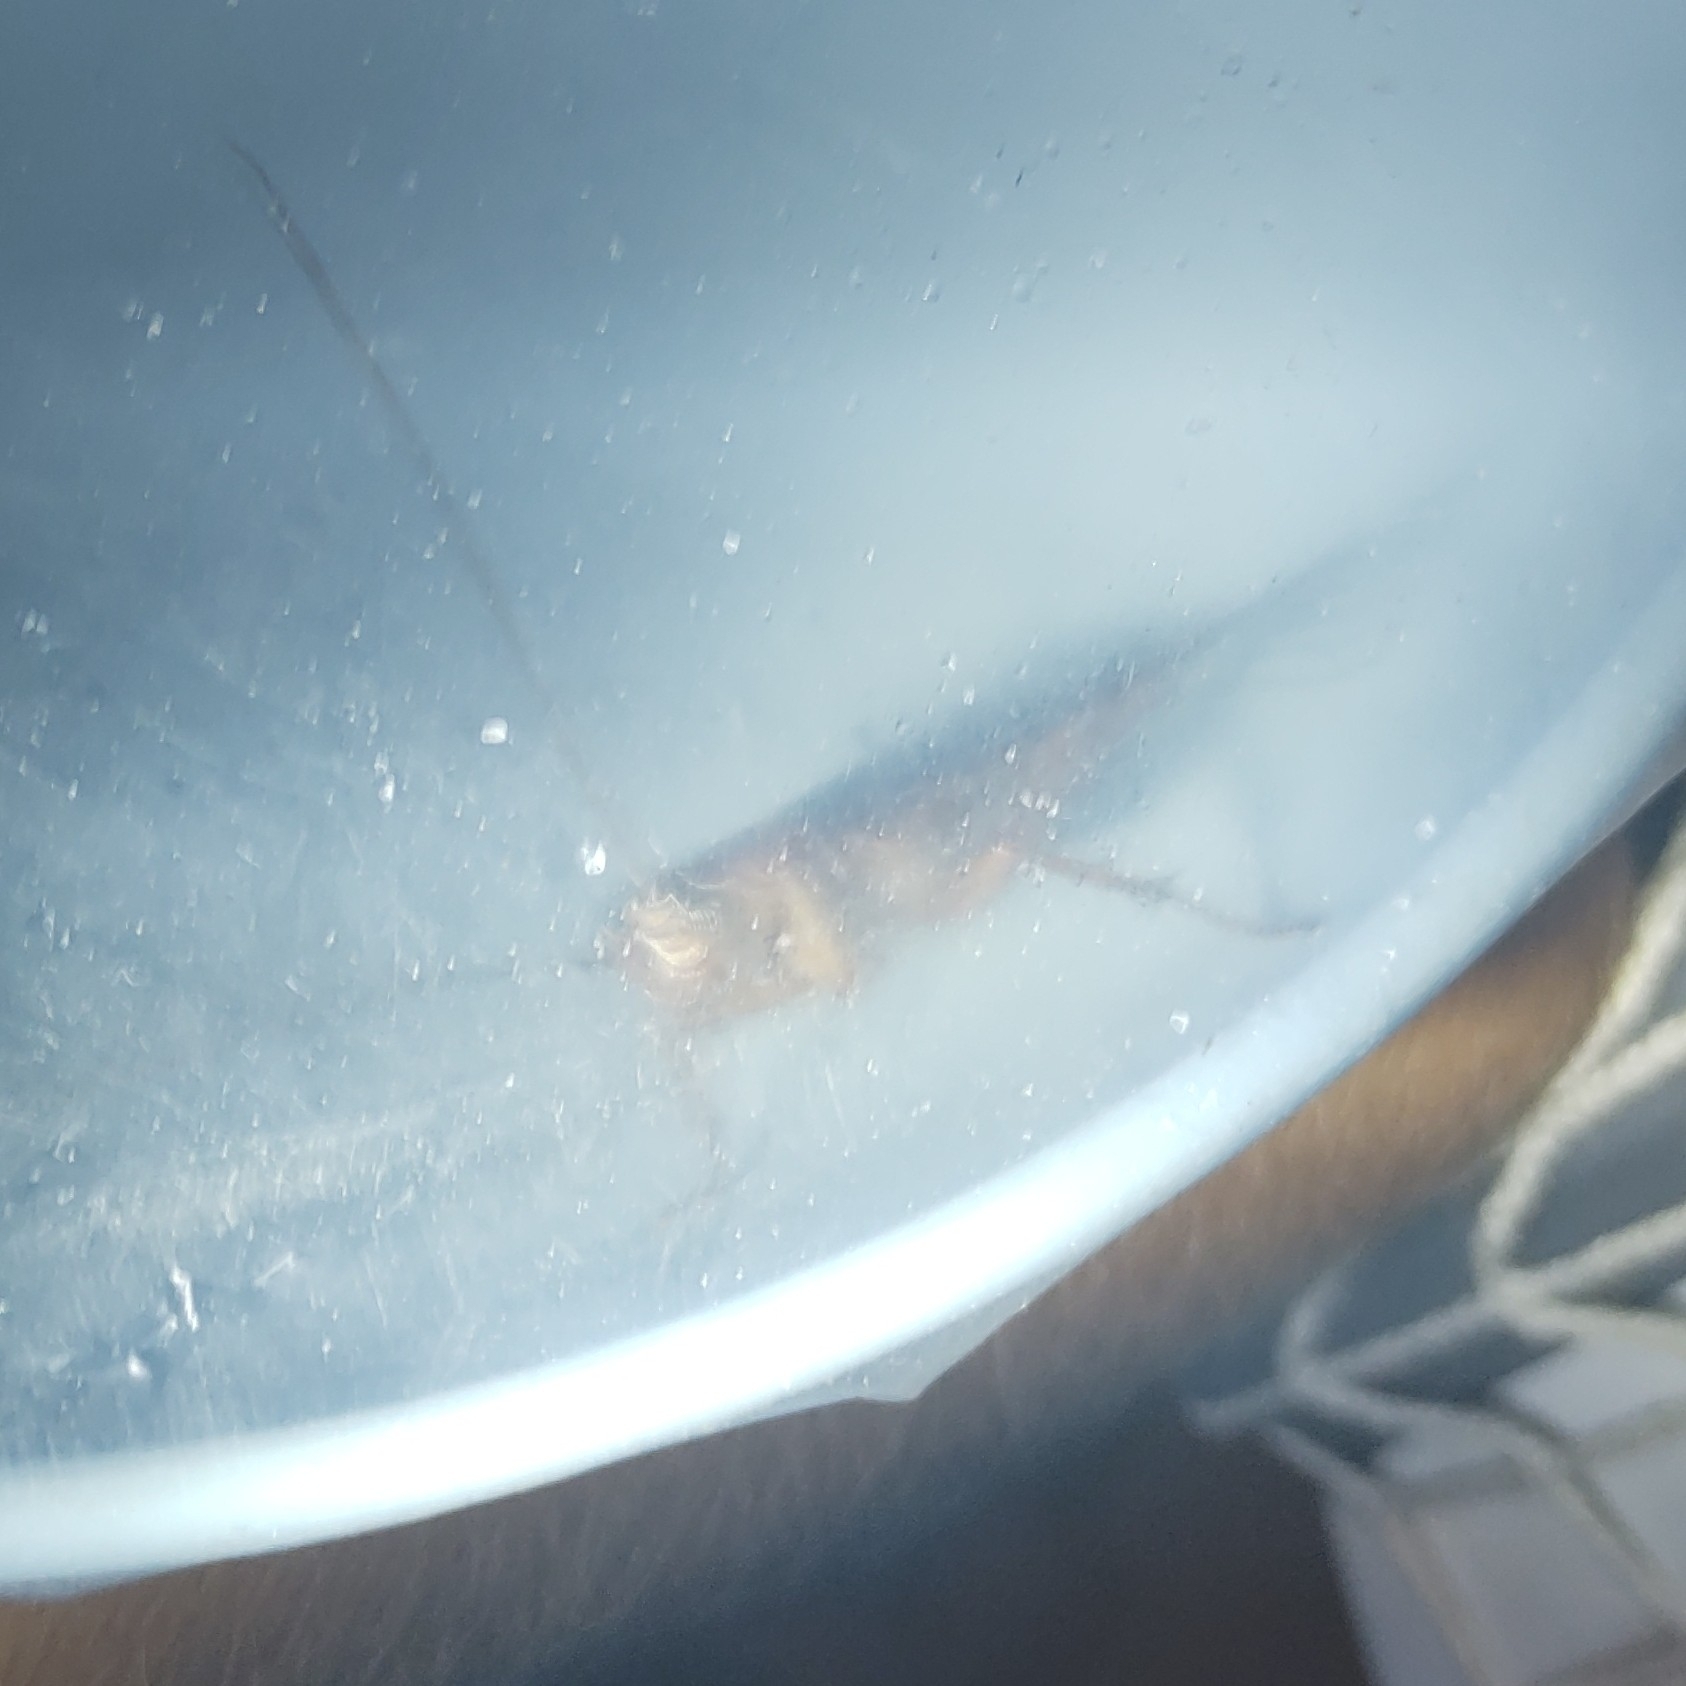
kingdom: Animalia
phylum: Arthropoda
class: Insecta
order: Blattodea
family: Blattidae
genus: Periplaneta
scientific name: Periplaneta americana
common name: American cockroach
